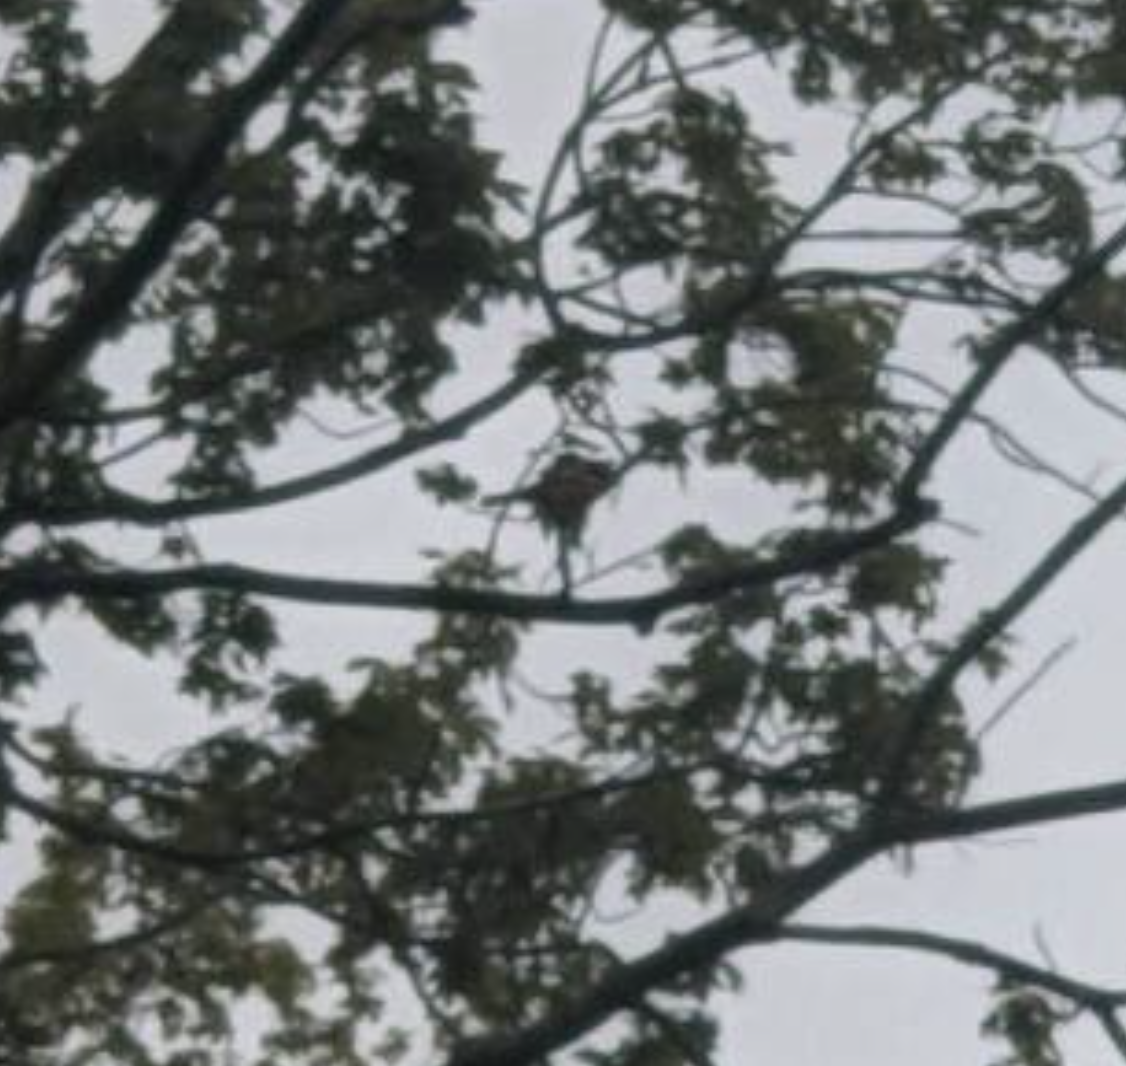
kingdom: Animalia
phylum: Chordata
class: Aves
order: Passeriformes
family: Icteridae
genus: Icterus
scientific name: Icterus galbula
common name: Baltimore oriole
